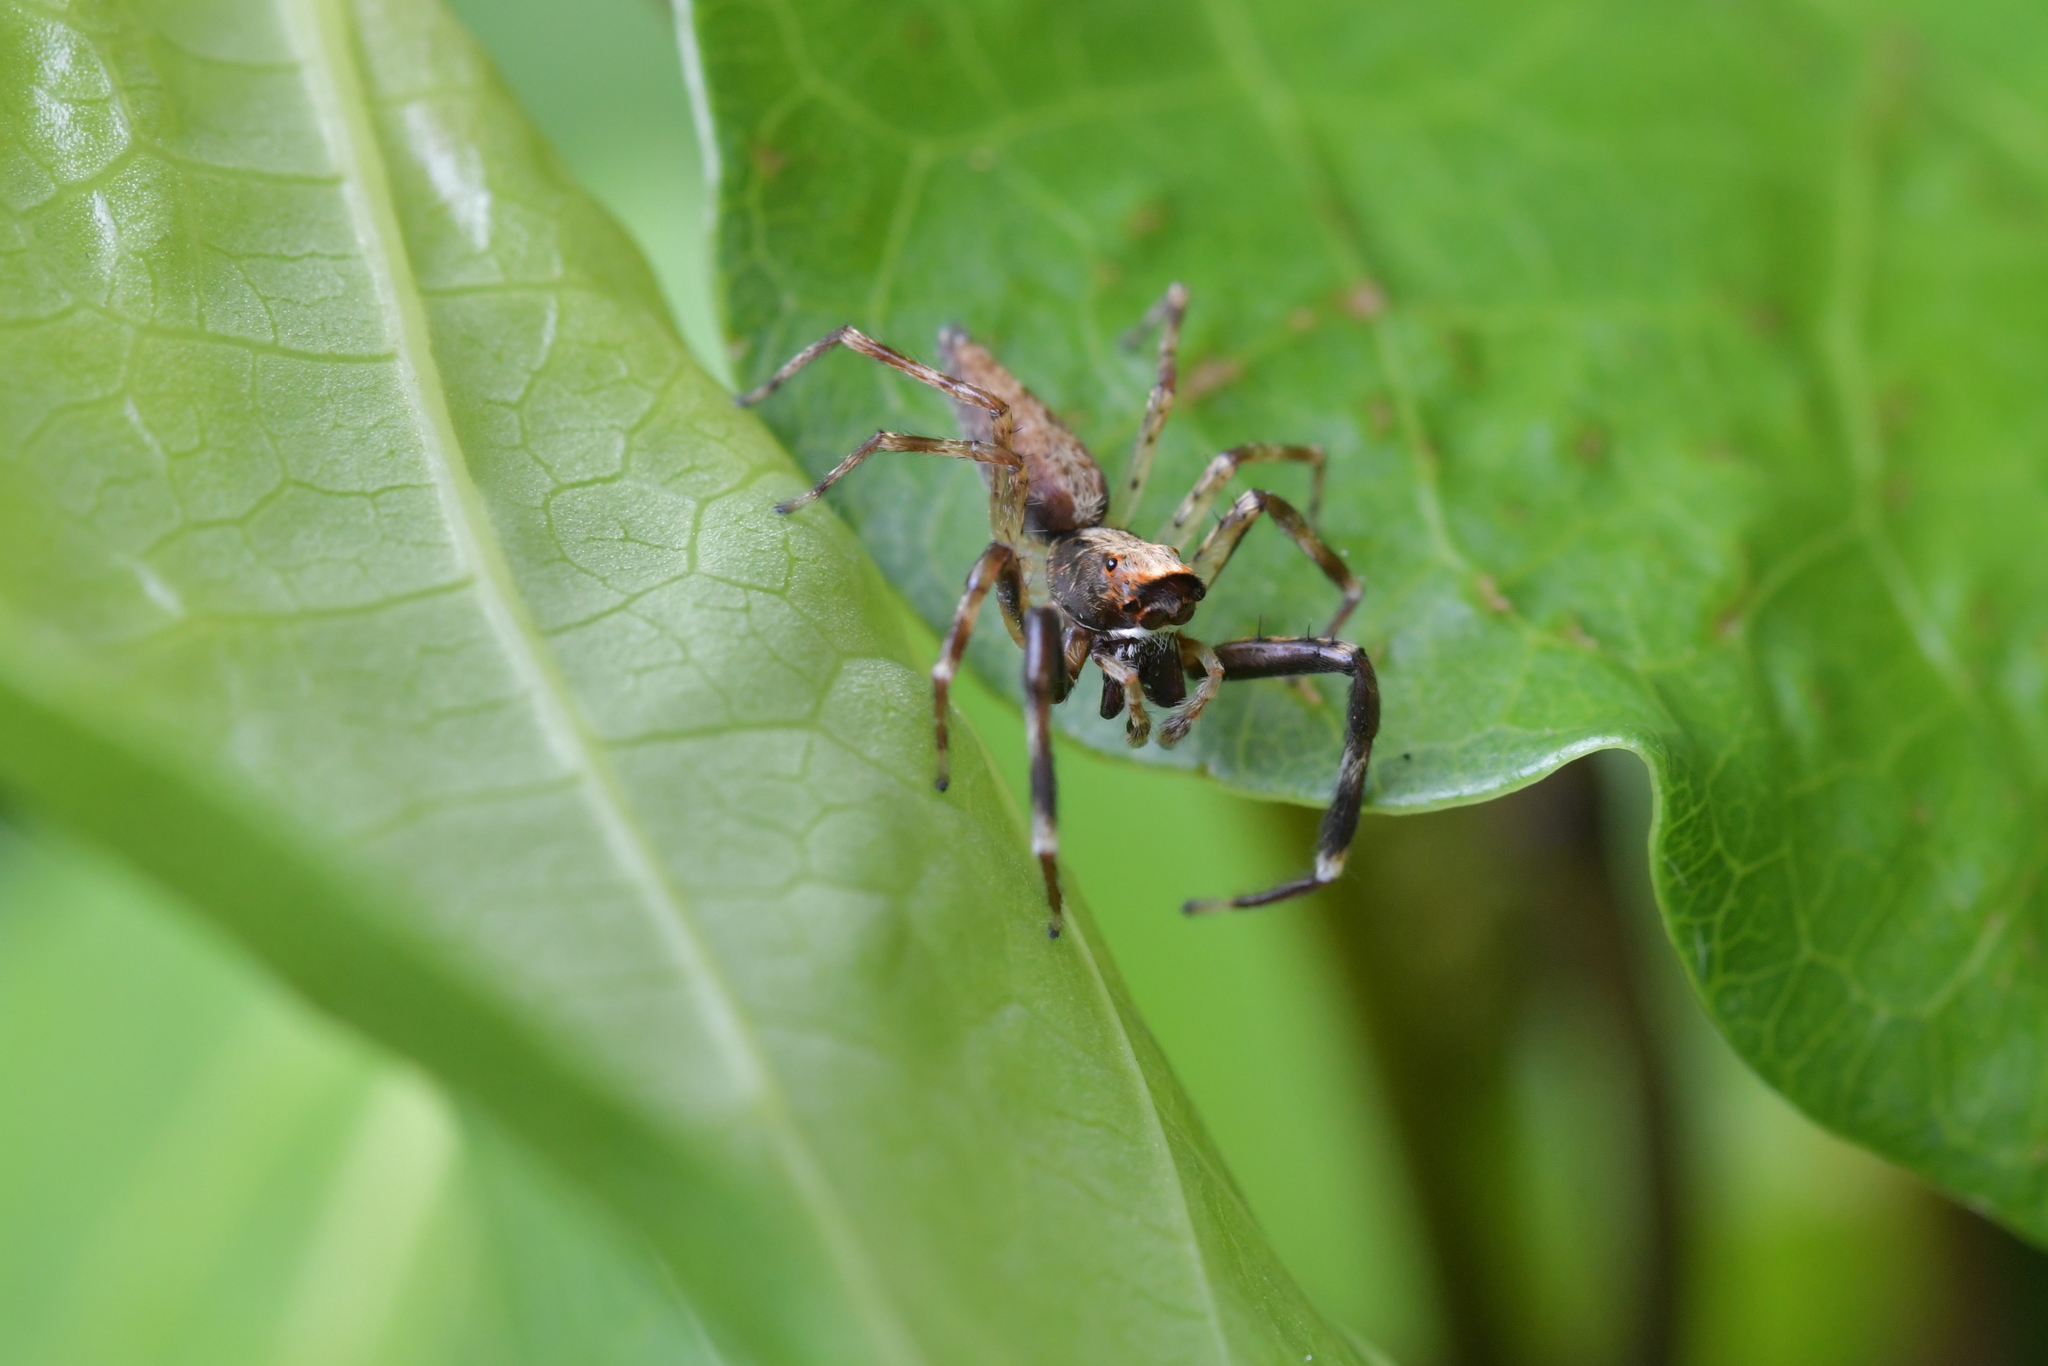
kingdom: Animalia
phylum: Arthropoda
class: Arachnida
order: Araneae
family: Salticidae
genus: Helpis
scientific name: Helpis minitabunda
